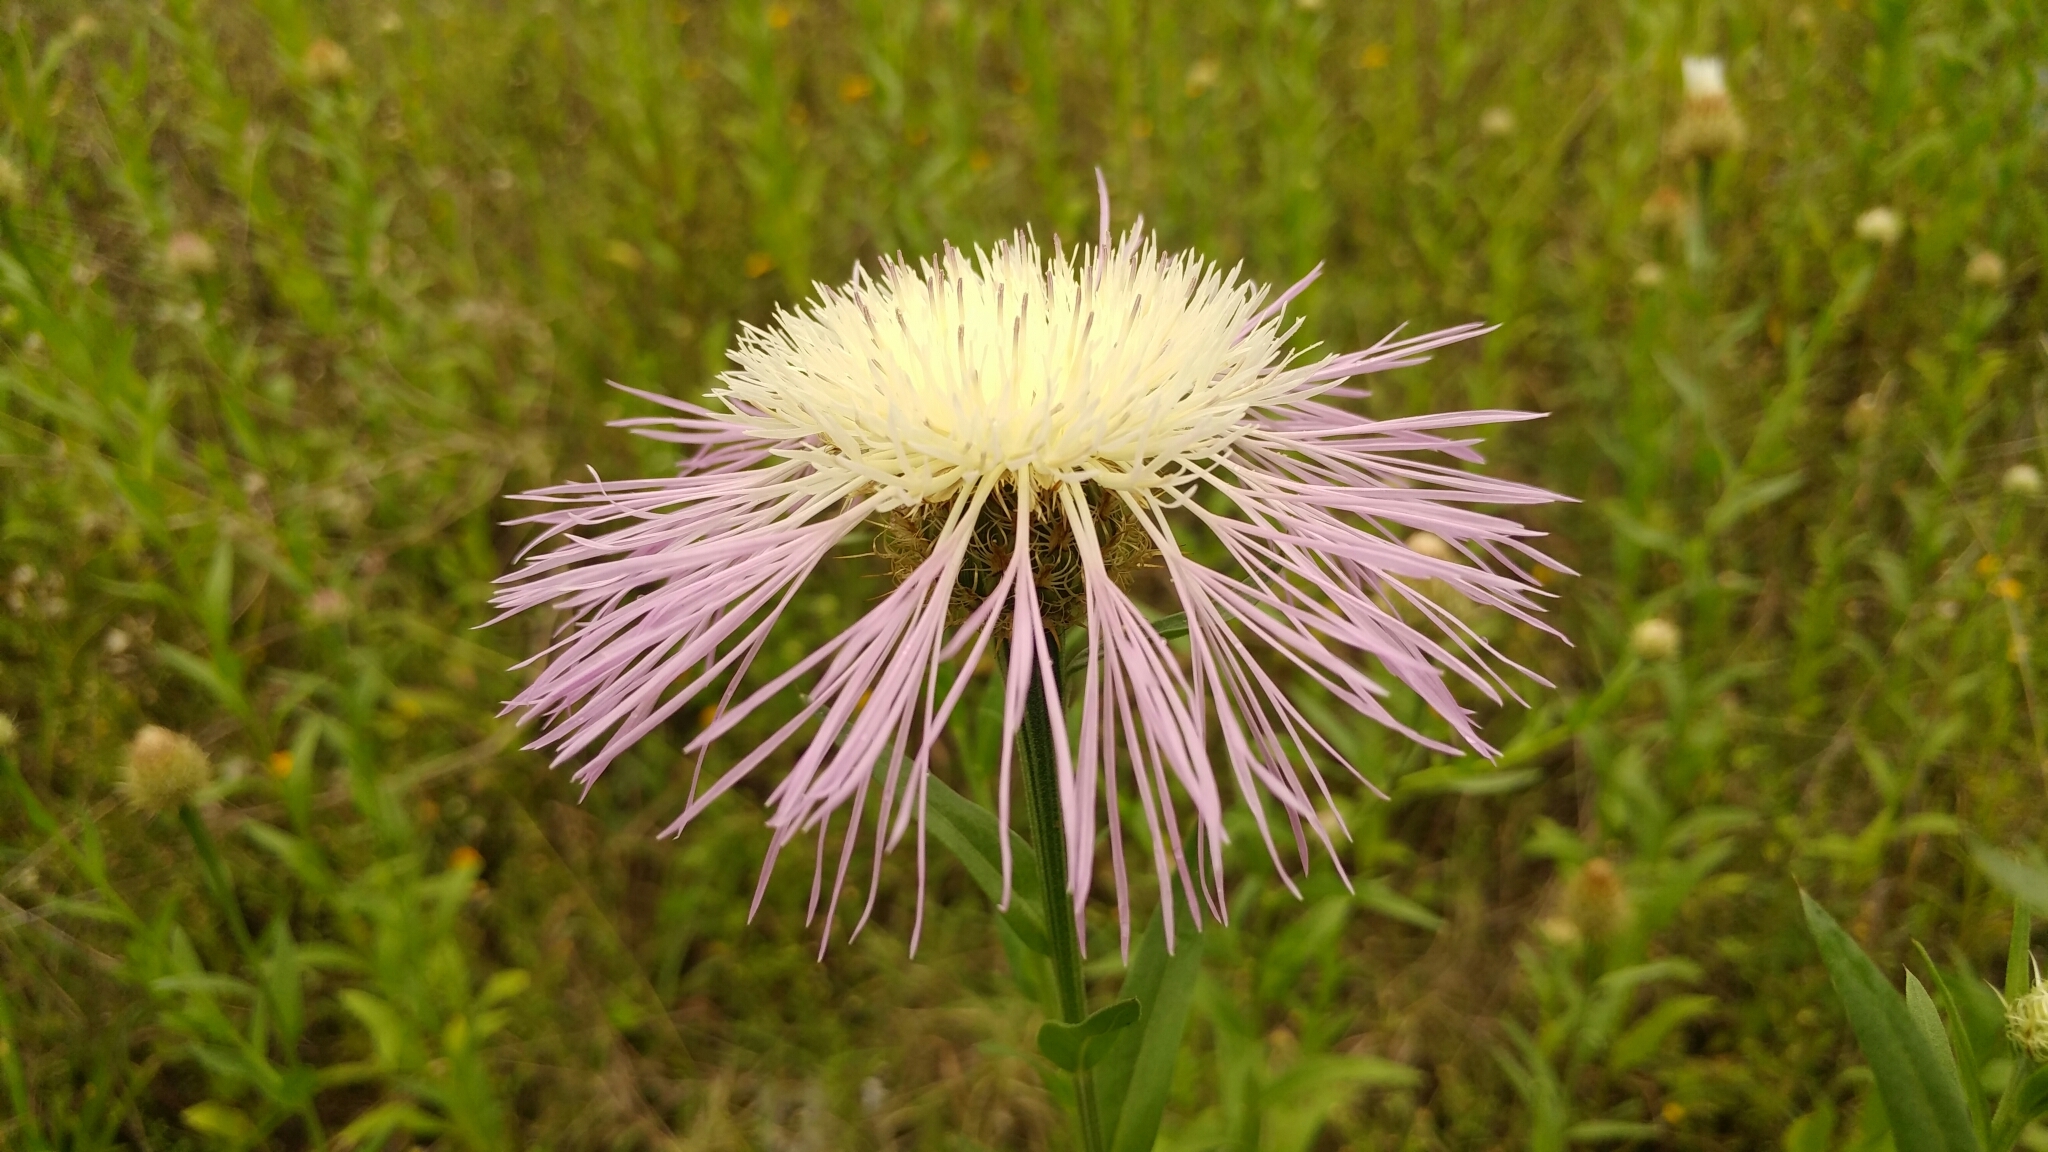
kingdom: Plantae
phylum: Tracheophyta
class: Magnoliopsida
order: Asterales
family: Asteraceae
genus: Plectocephalus
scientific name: Plectocephalus americanus
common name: American basket-flower
